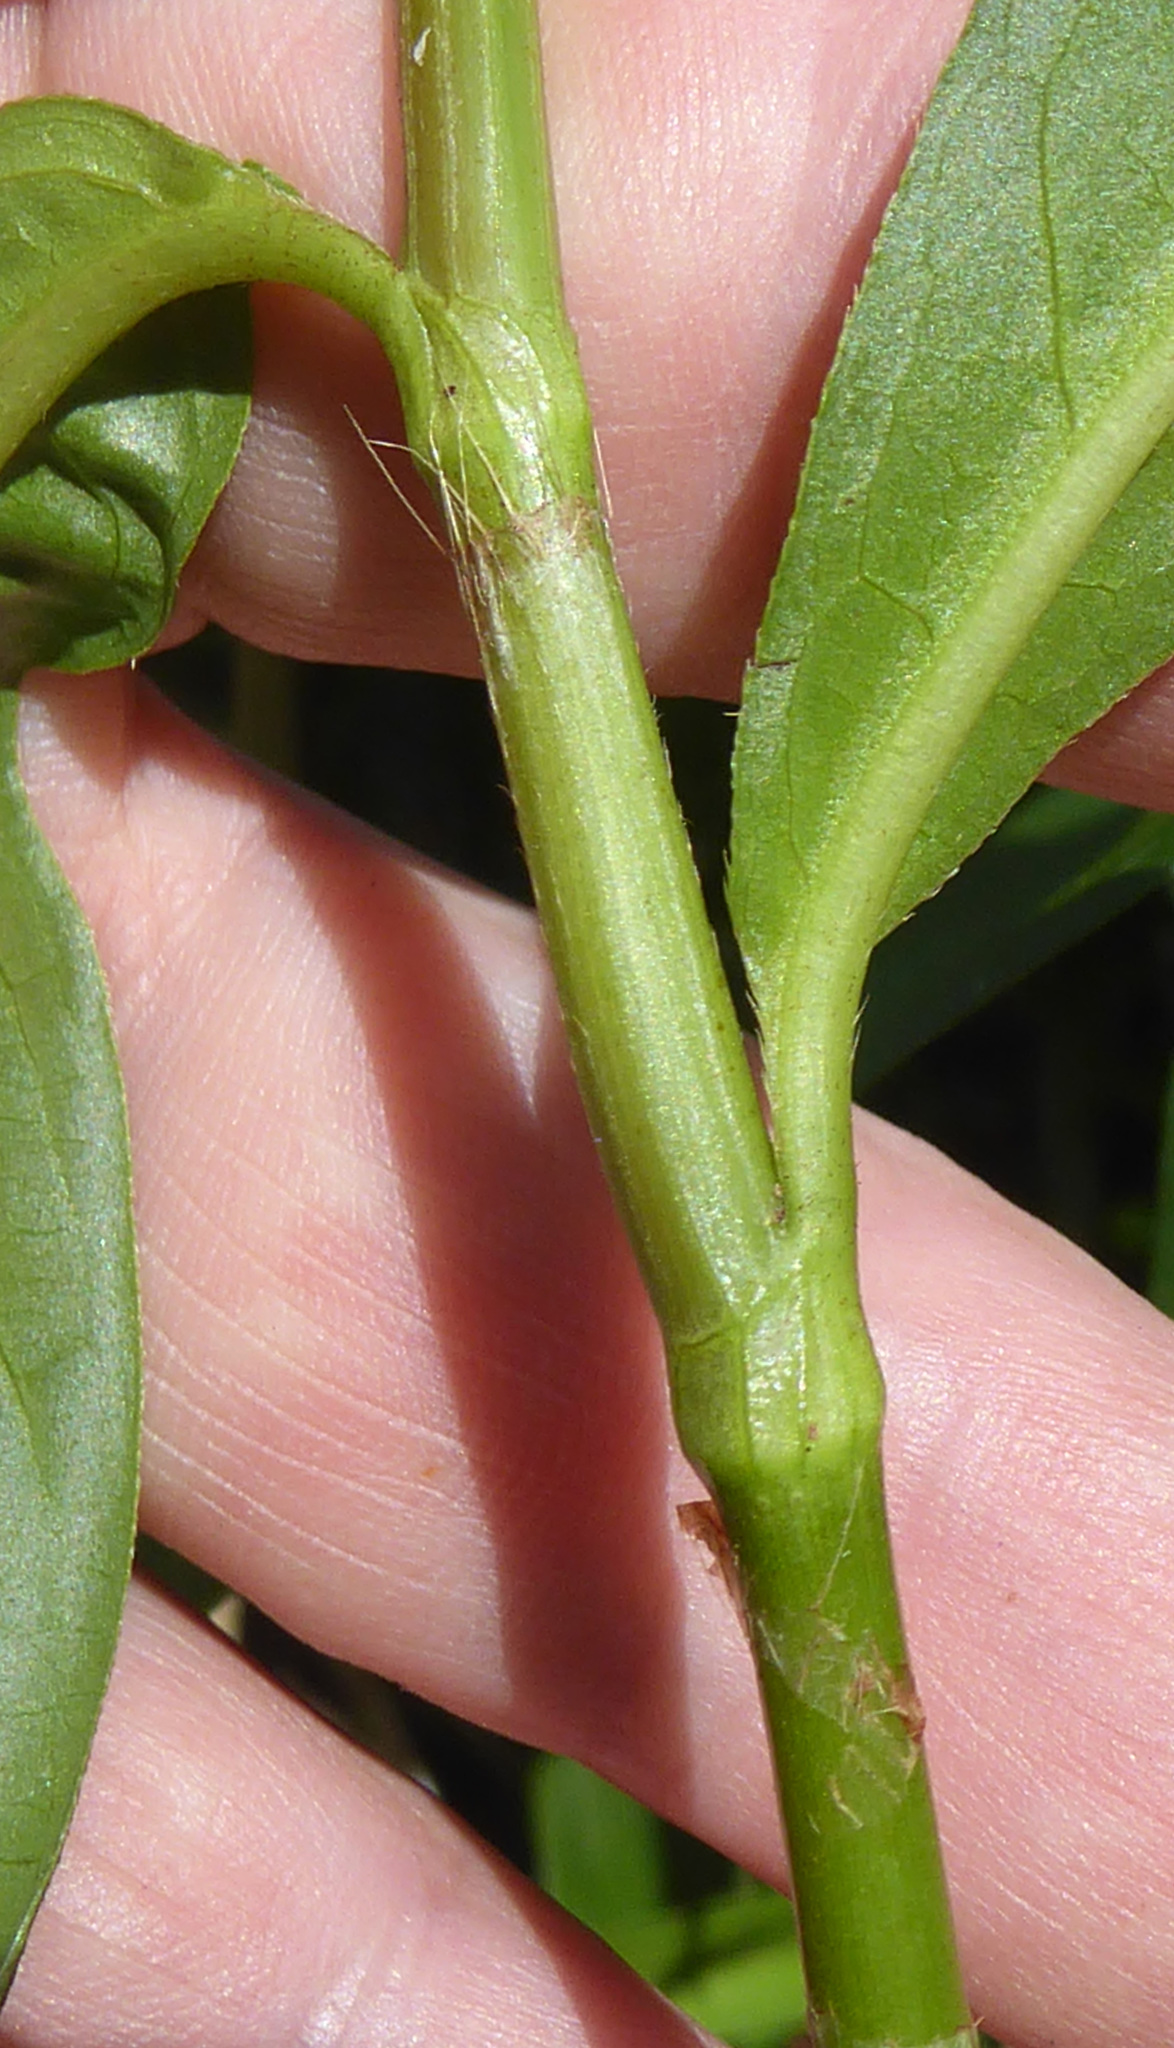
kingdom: Plantae
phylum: Tracheophyta
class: Magnoliopsida
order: Caryophyllales
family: Polygonaceae
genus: Persicaria
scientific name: Persicaria punctata
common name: Dotted smartweed
